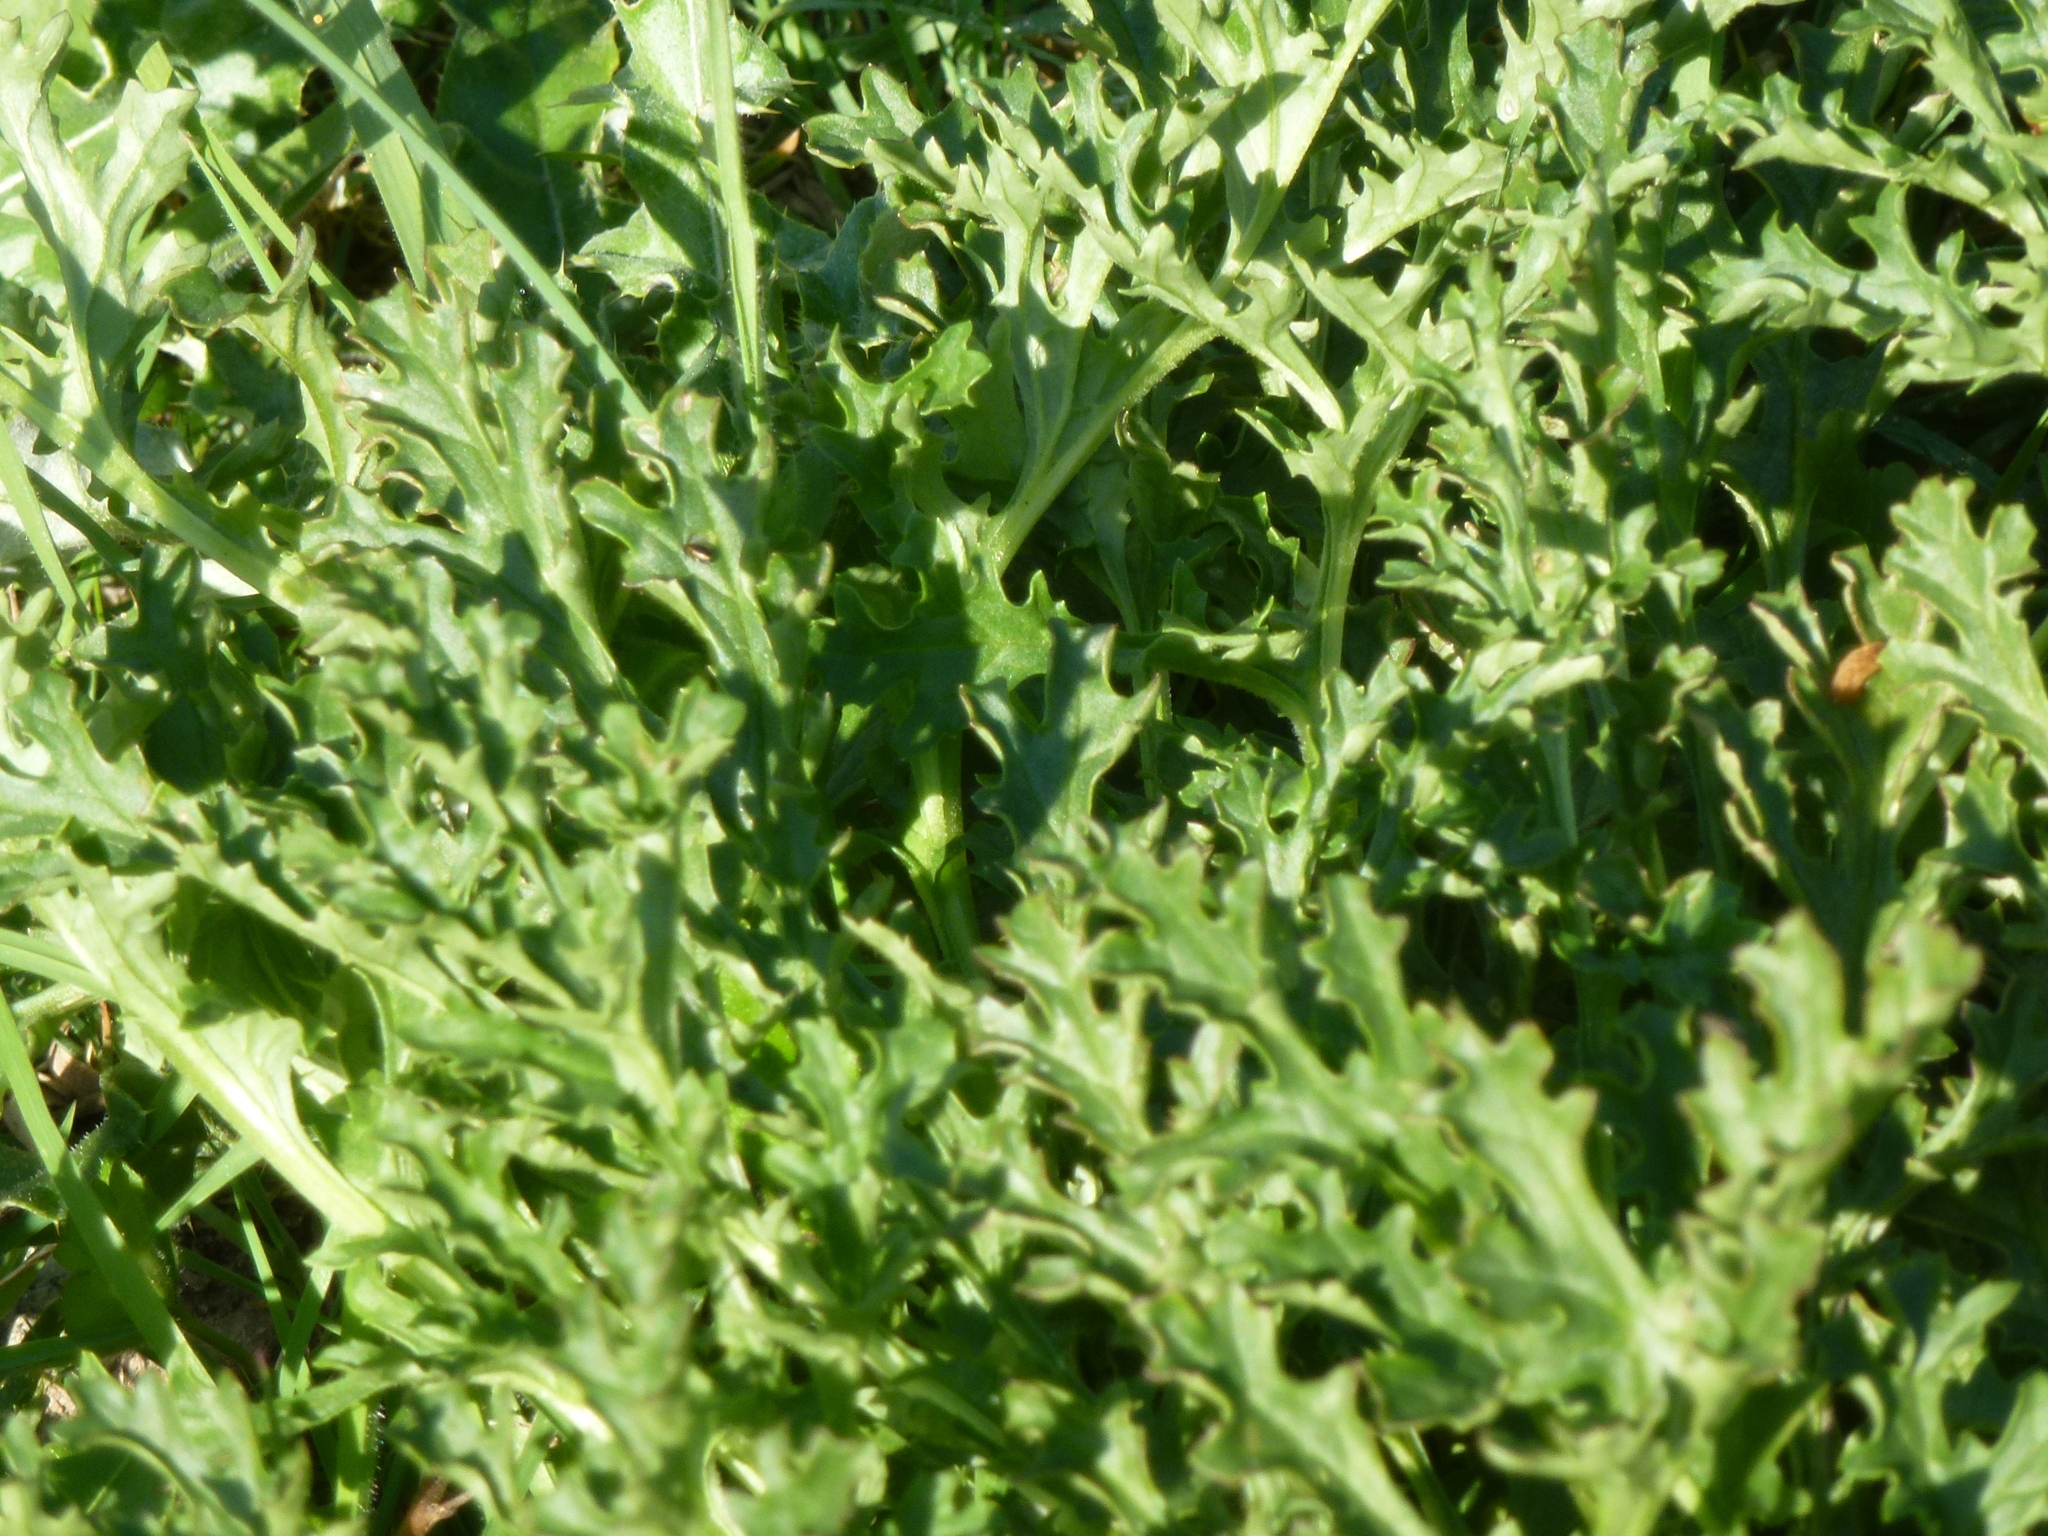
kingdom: Plantae
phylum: Tracheophyta
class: Magnoliopsida
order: Asterales
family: Asteraceae
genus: Jacobaea
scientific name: Jacobaea vulgaris
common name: Stinking willie
